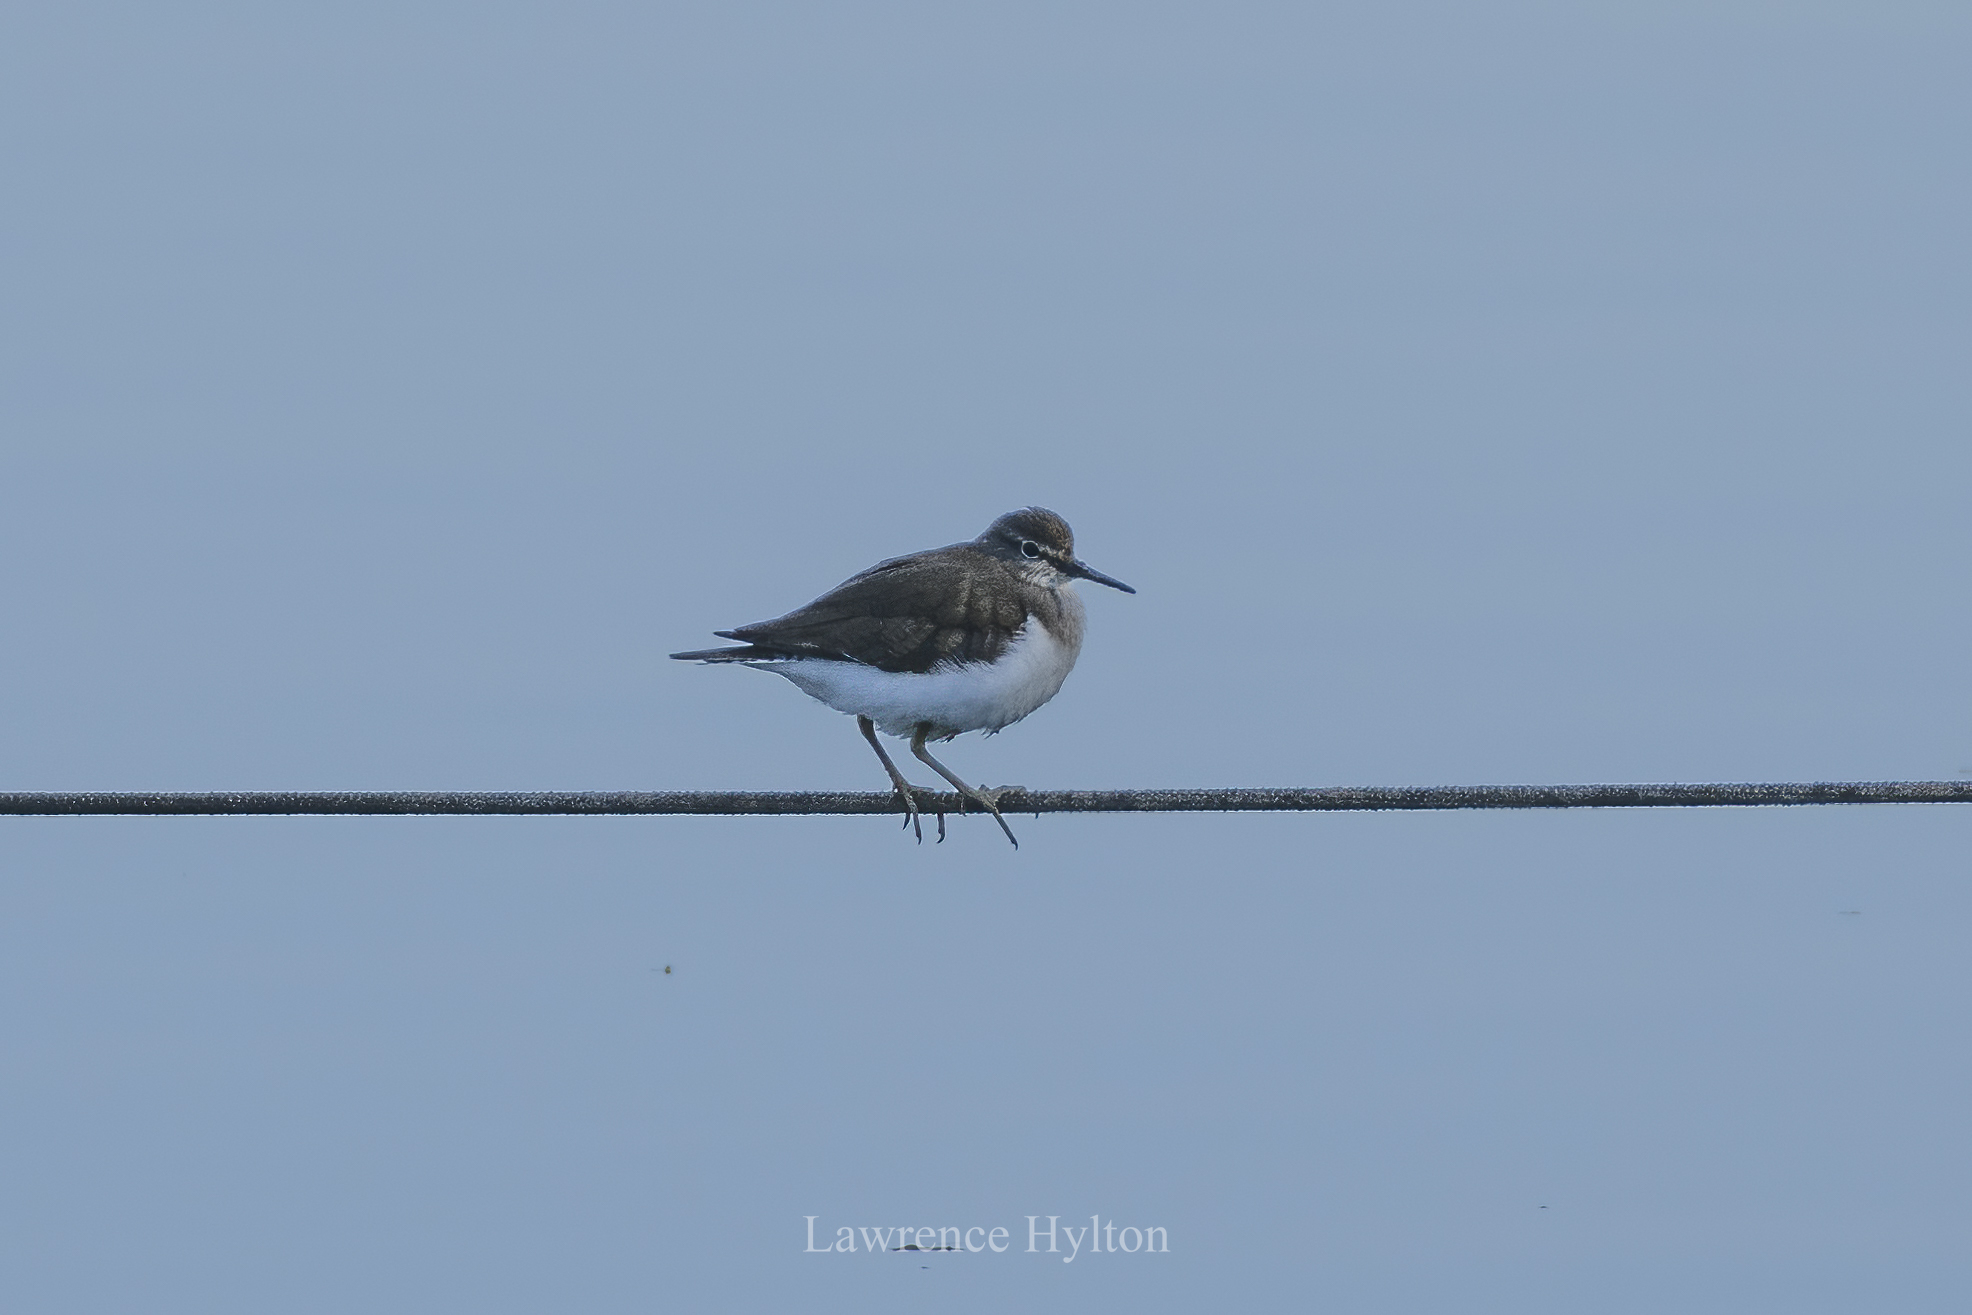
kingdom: Animalia
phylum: Chordata
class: Aves
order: Charadriiformes
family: Scolopacidae
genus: Actitis
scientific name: Actitis hypoleucos
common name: Common sandpiper
